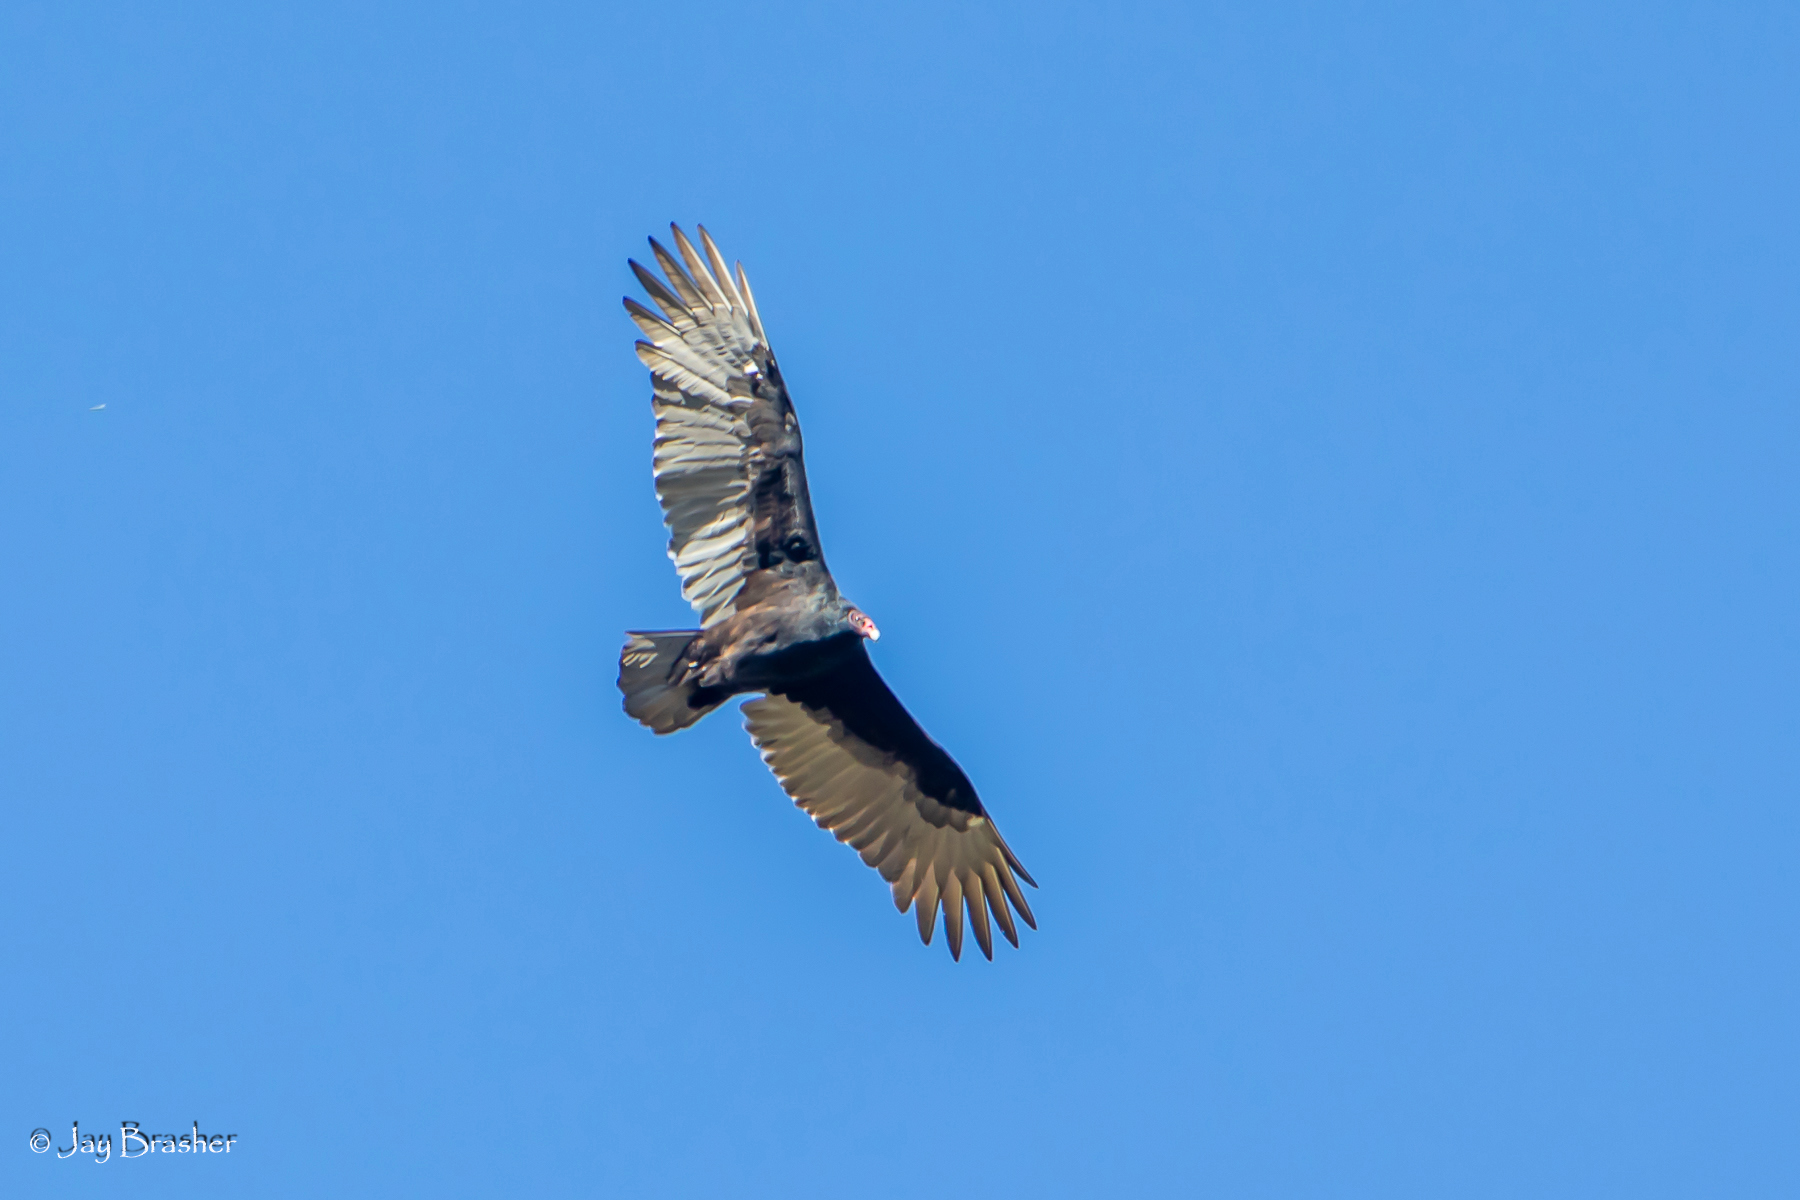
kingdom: Animalia
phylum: Chordata
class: Aves
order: Accipitriformes
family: Cathartidae
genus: Cathartes
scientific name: Cathartes aura
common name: Turkey vulture
